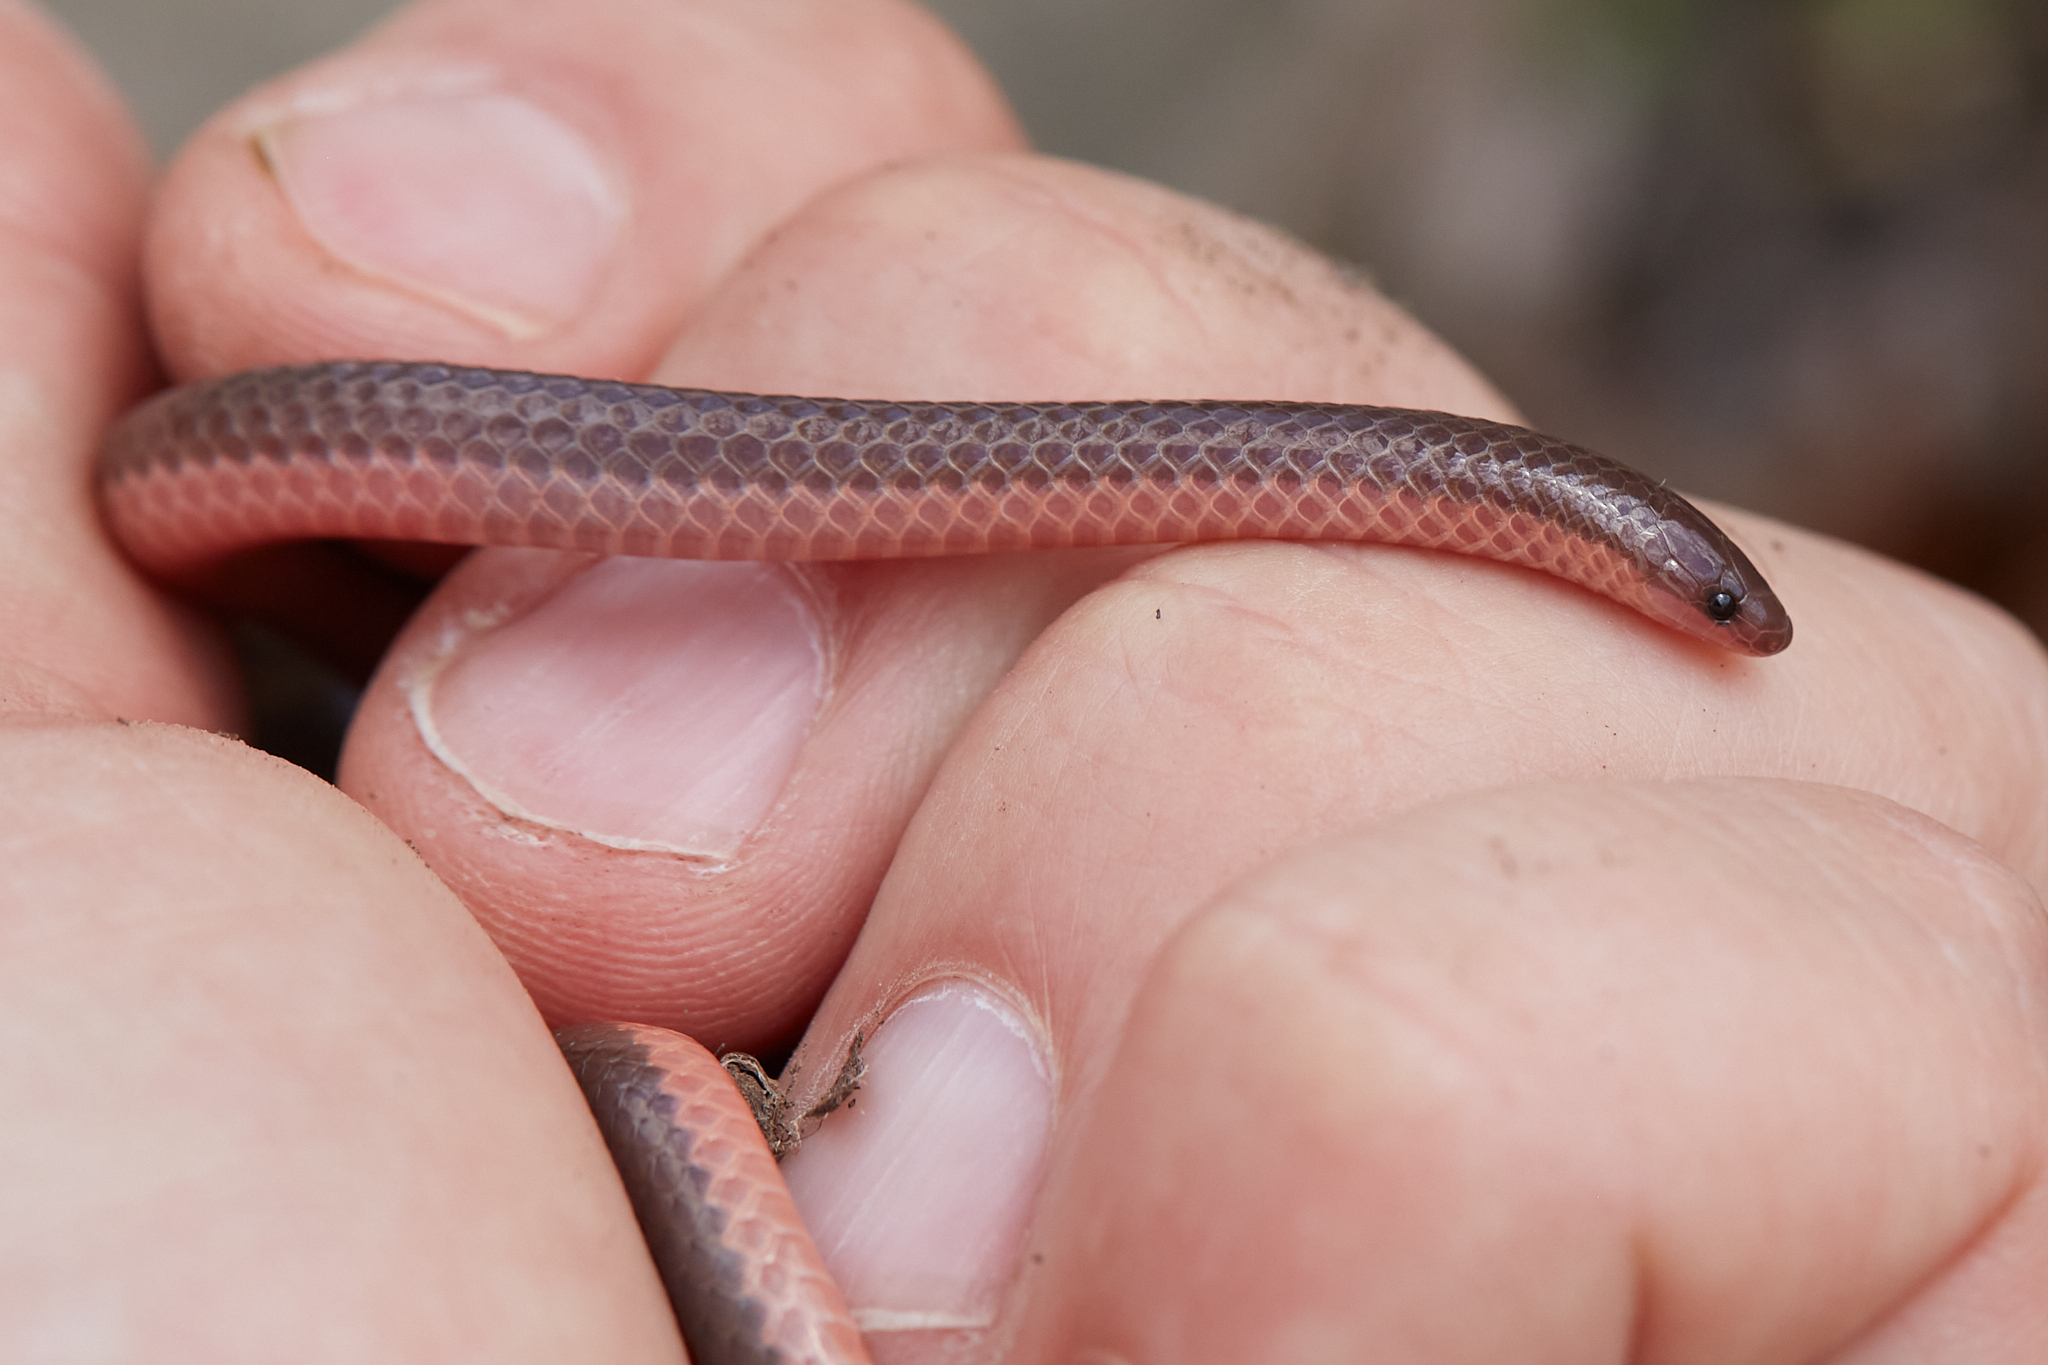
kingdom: Animalia
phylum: Chordata
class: Squamata
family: Colubridae
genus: Carphophis
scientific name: Carphophis amoenus
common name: Eastern worm snake
